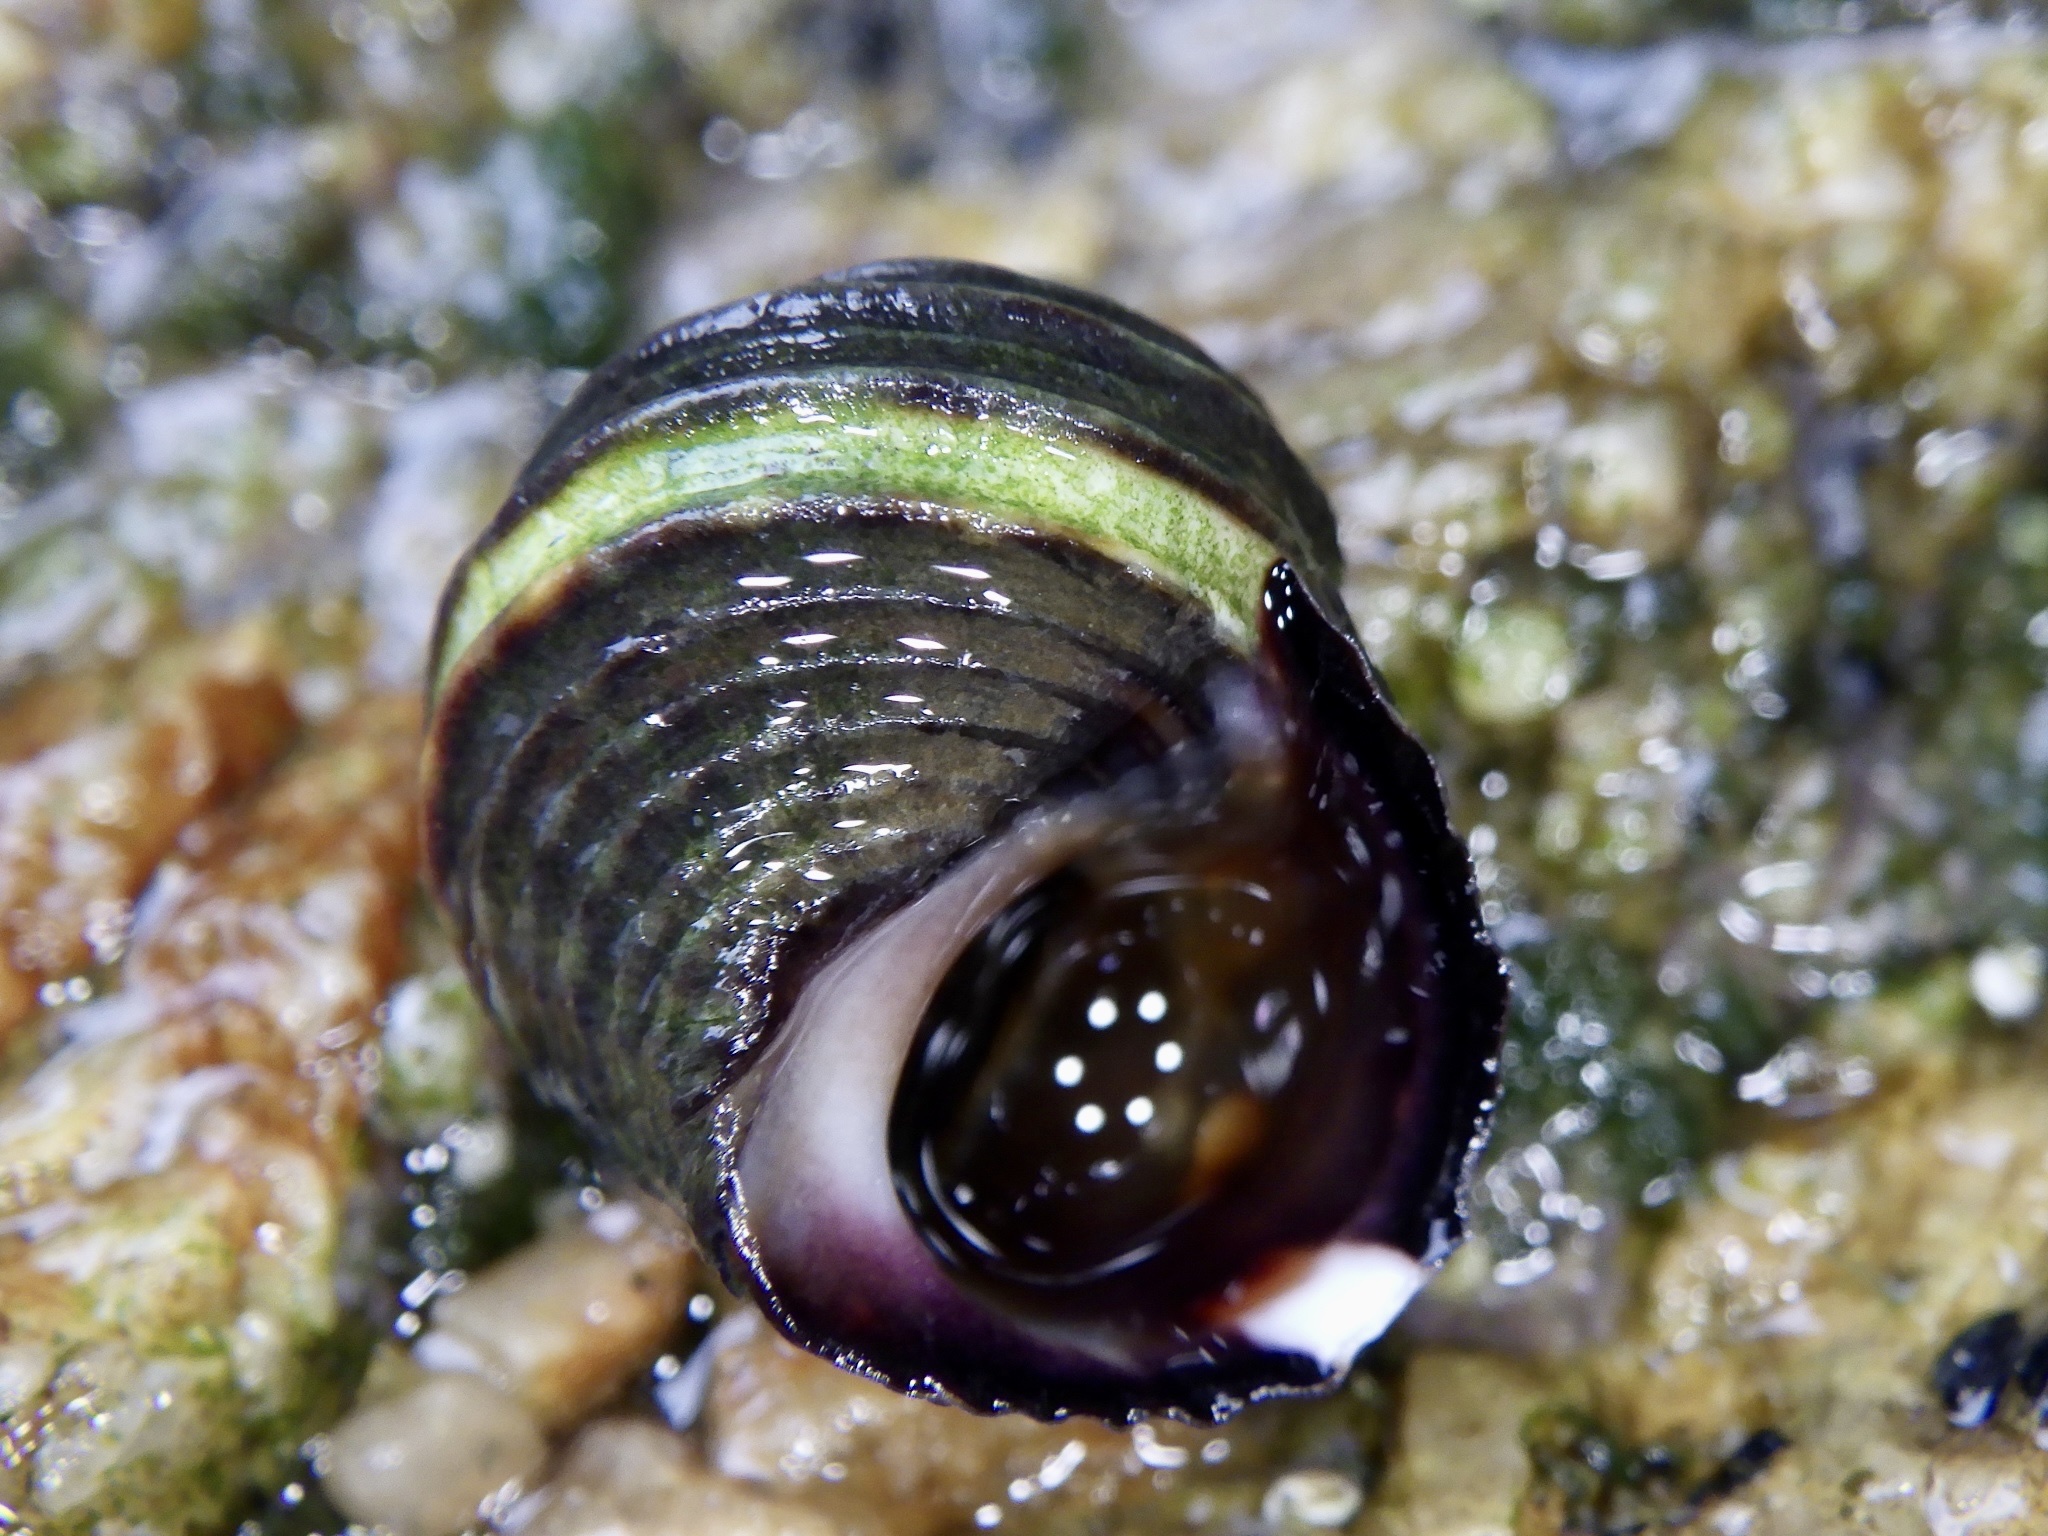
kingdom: Animalia
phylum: Mollusca
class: Gastropoda
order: Littorinimorpha
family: Littorinidae
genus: Littorina
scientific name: Littorina brevicula
